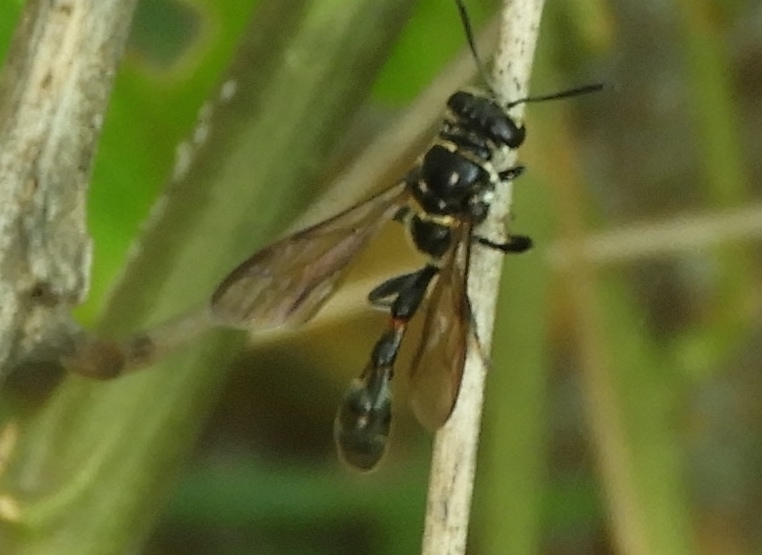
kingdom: Animalia
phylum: Arthropoda
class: Insecta
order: Hymenoptera
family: Crabronidae
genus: Trypoxylon
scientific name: Trypoxylon
